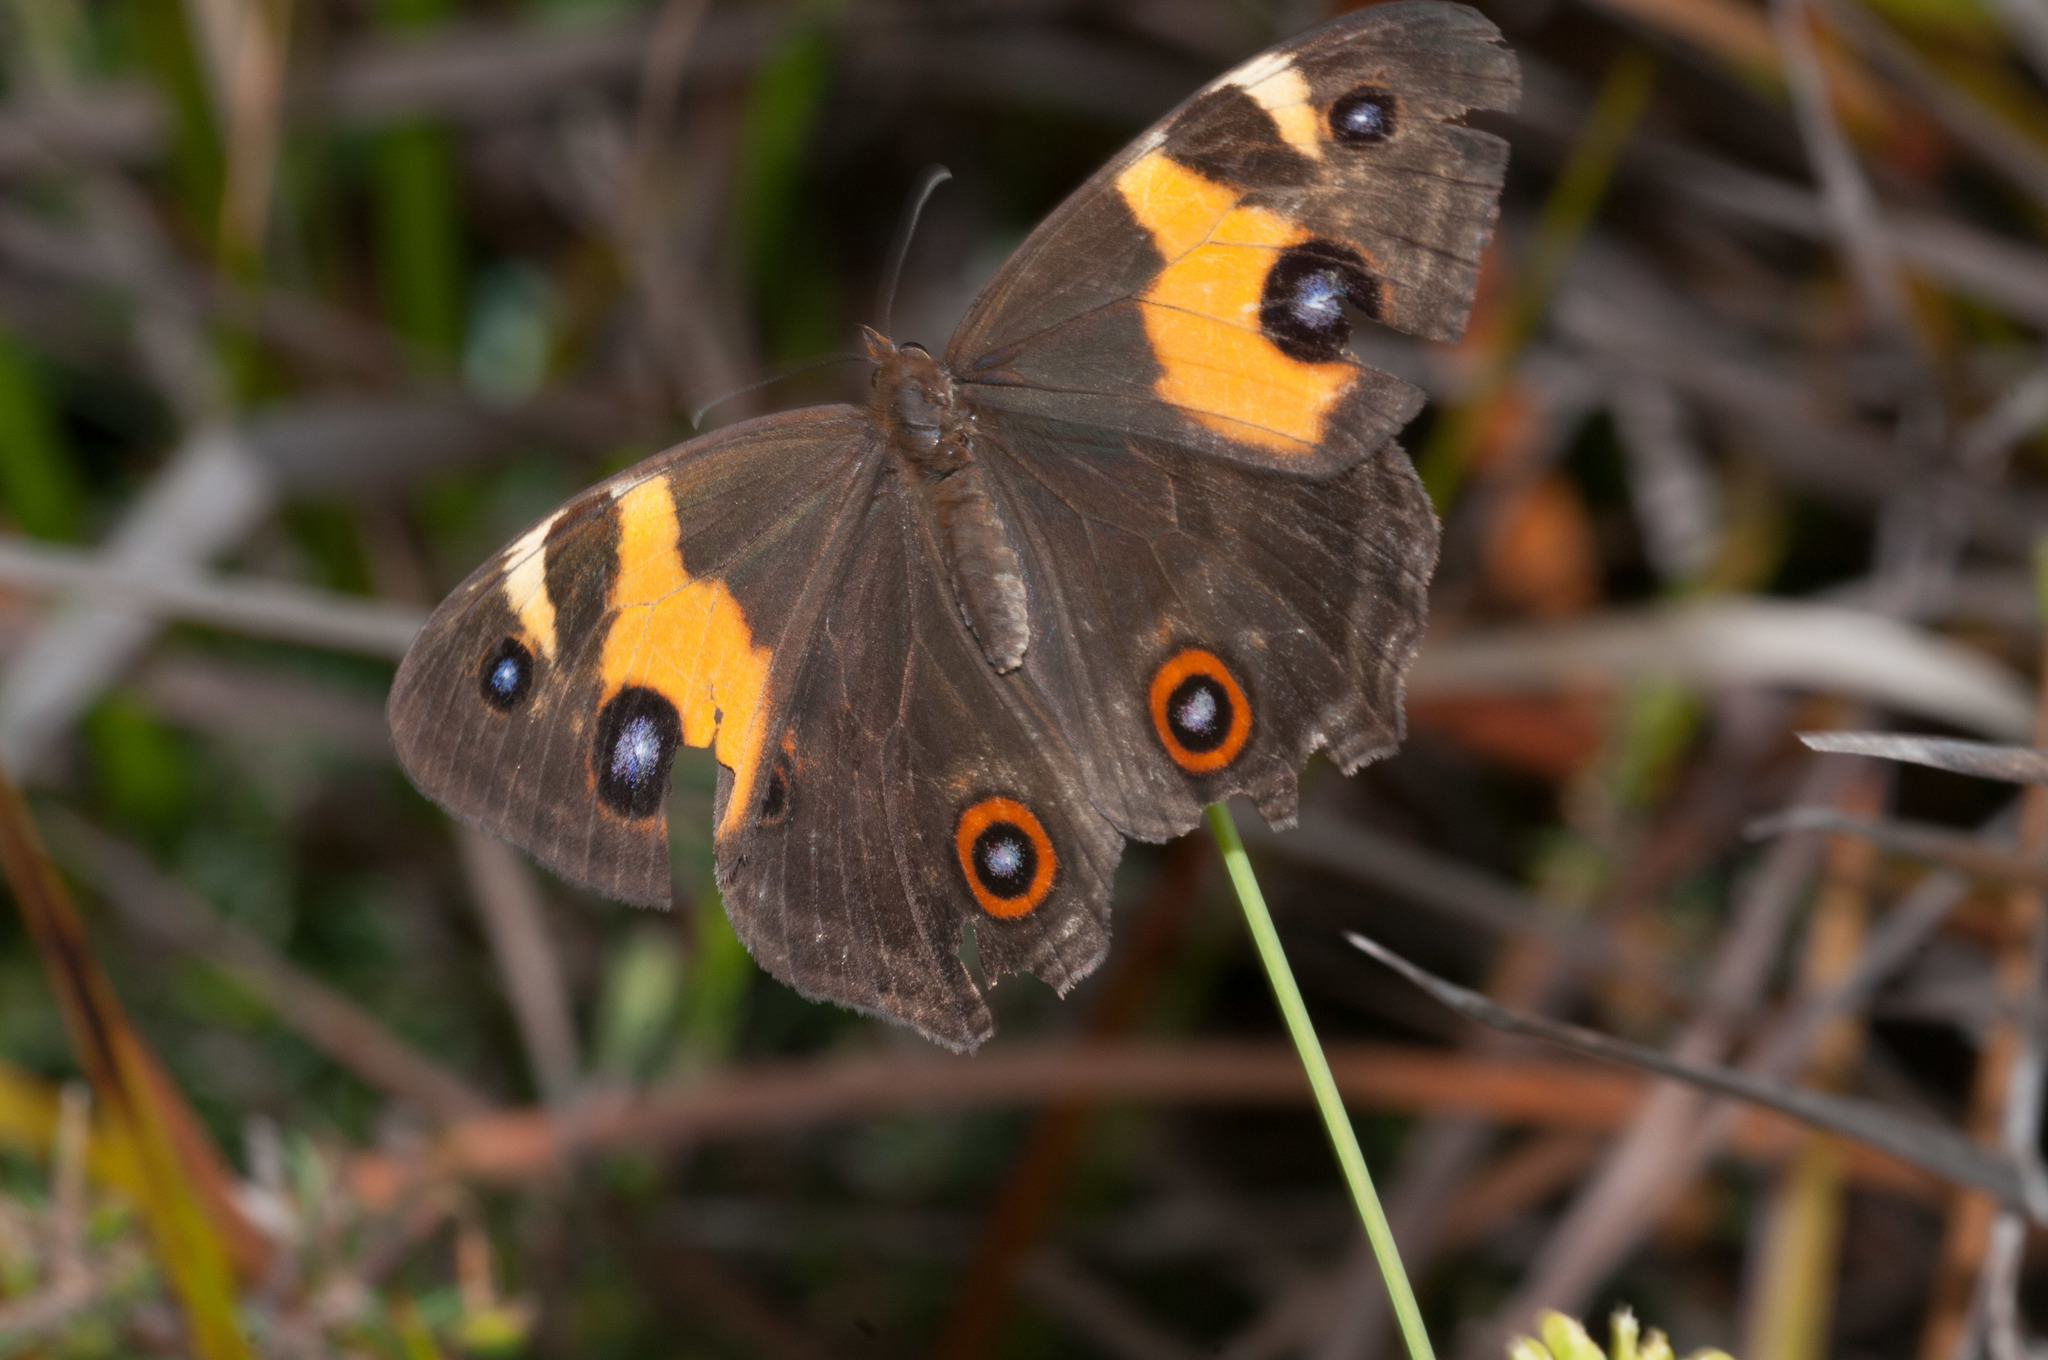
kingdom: Animalia
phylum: Arthropoda
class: Insecta
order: Lepidoptera
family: Nymphalidae
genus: Tisiphone
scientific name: Tisiphone abeona
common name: Swordgrass brown
